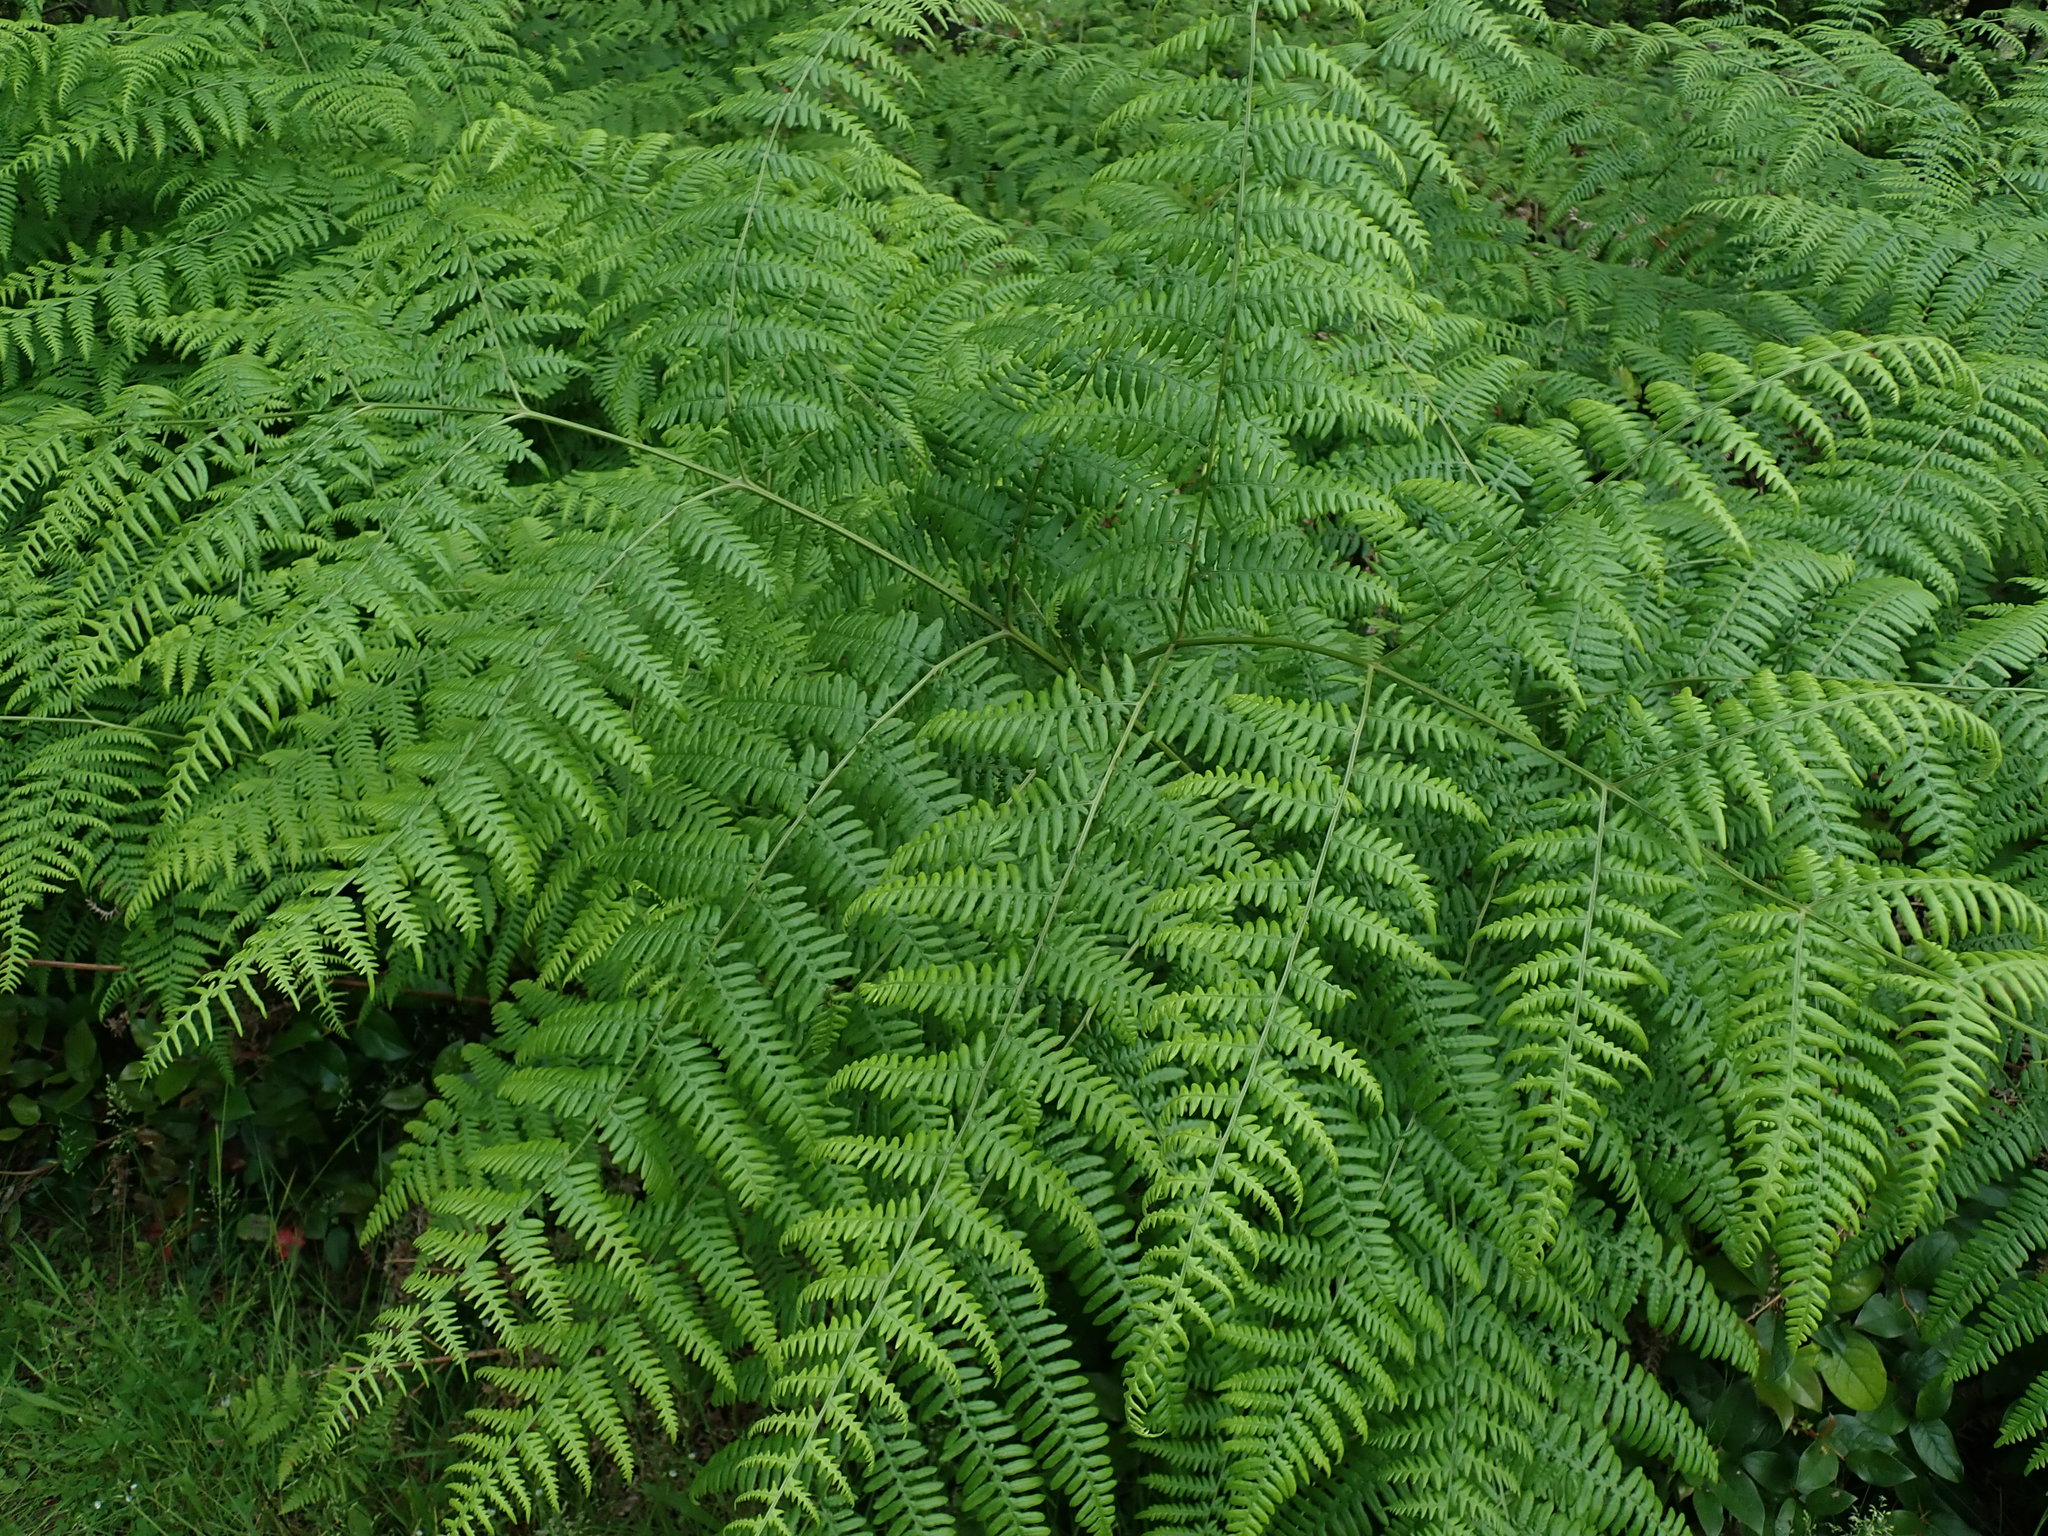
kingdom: Plantae
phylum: Tracheophyta
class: Polypodiopsida
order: Polypodiales
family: Dennstaedtiaceae
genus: Pteridium
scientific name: Pteridium aquilinum
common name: Bracken
